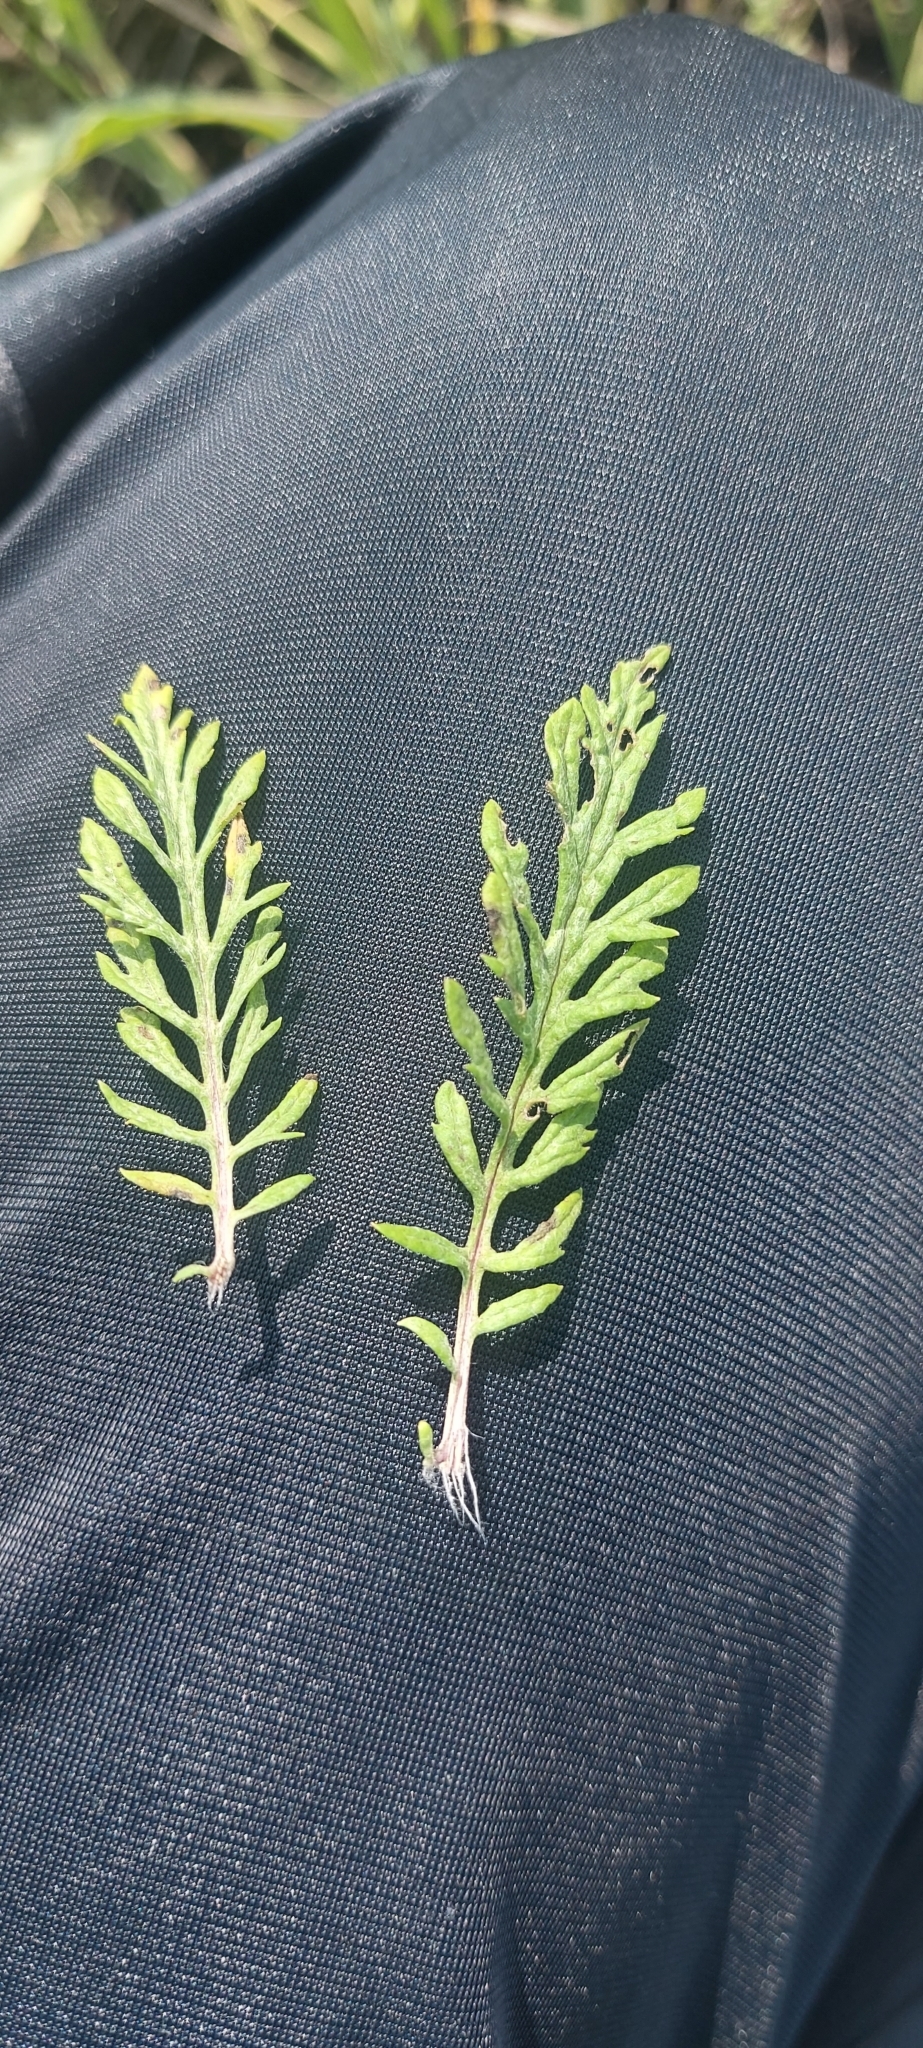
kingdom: Plantae
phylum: Tracheophyta
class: Magnoliopsida
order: Asterales
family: Asteraceae
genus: Jacobaea
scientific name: Jacobaea erucifolia
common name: Hoary ragwort
